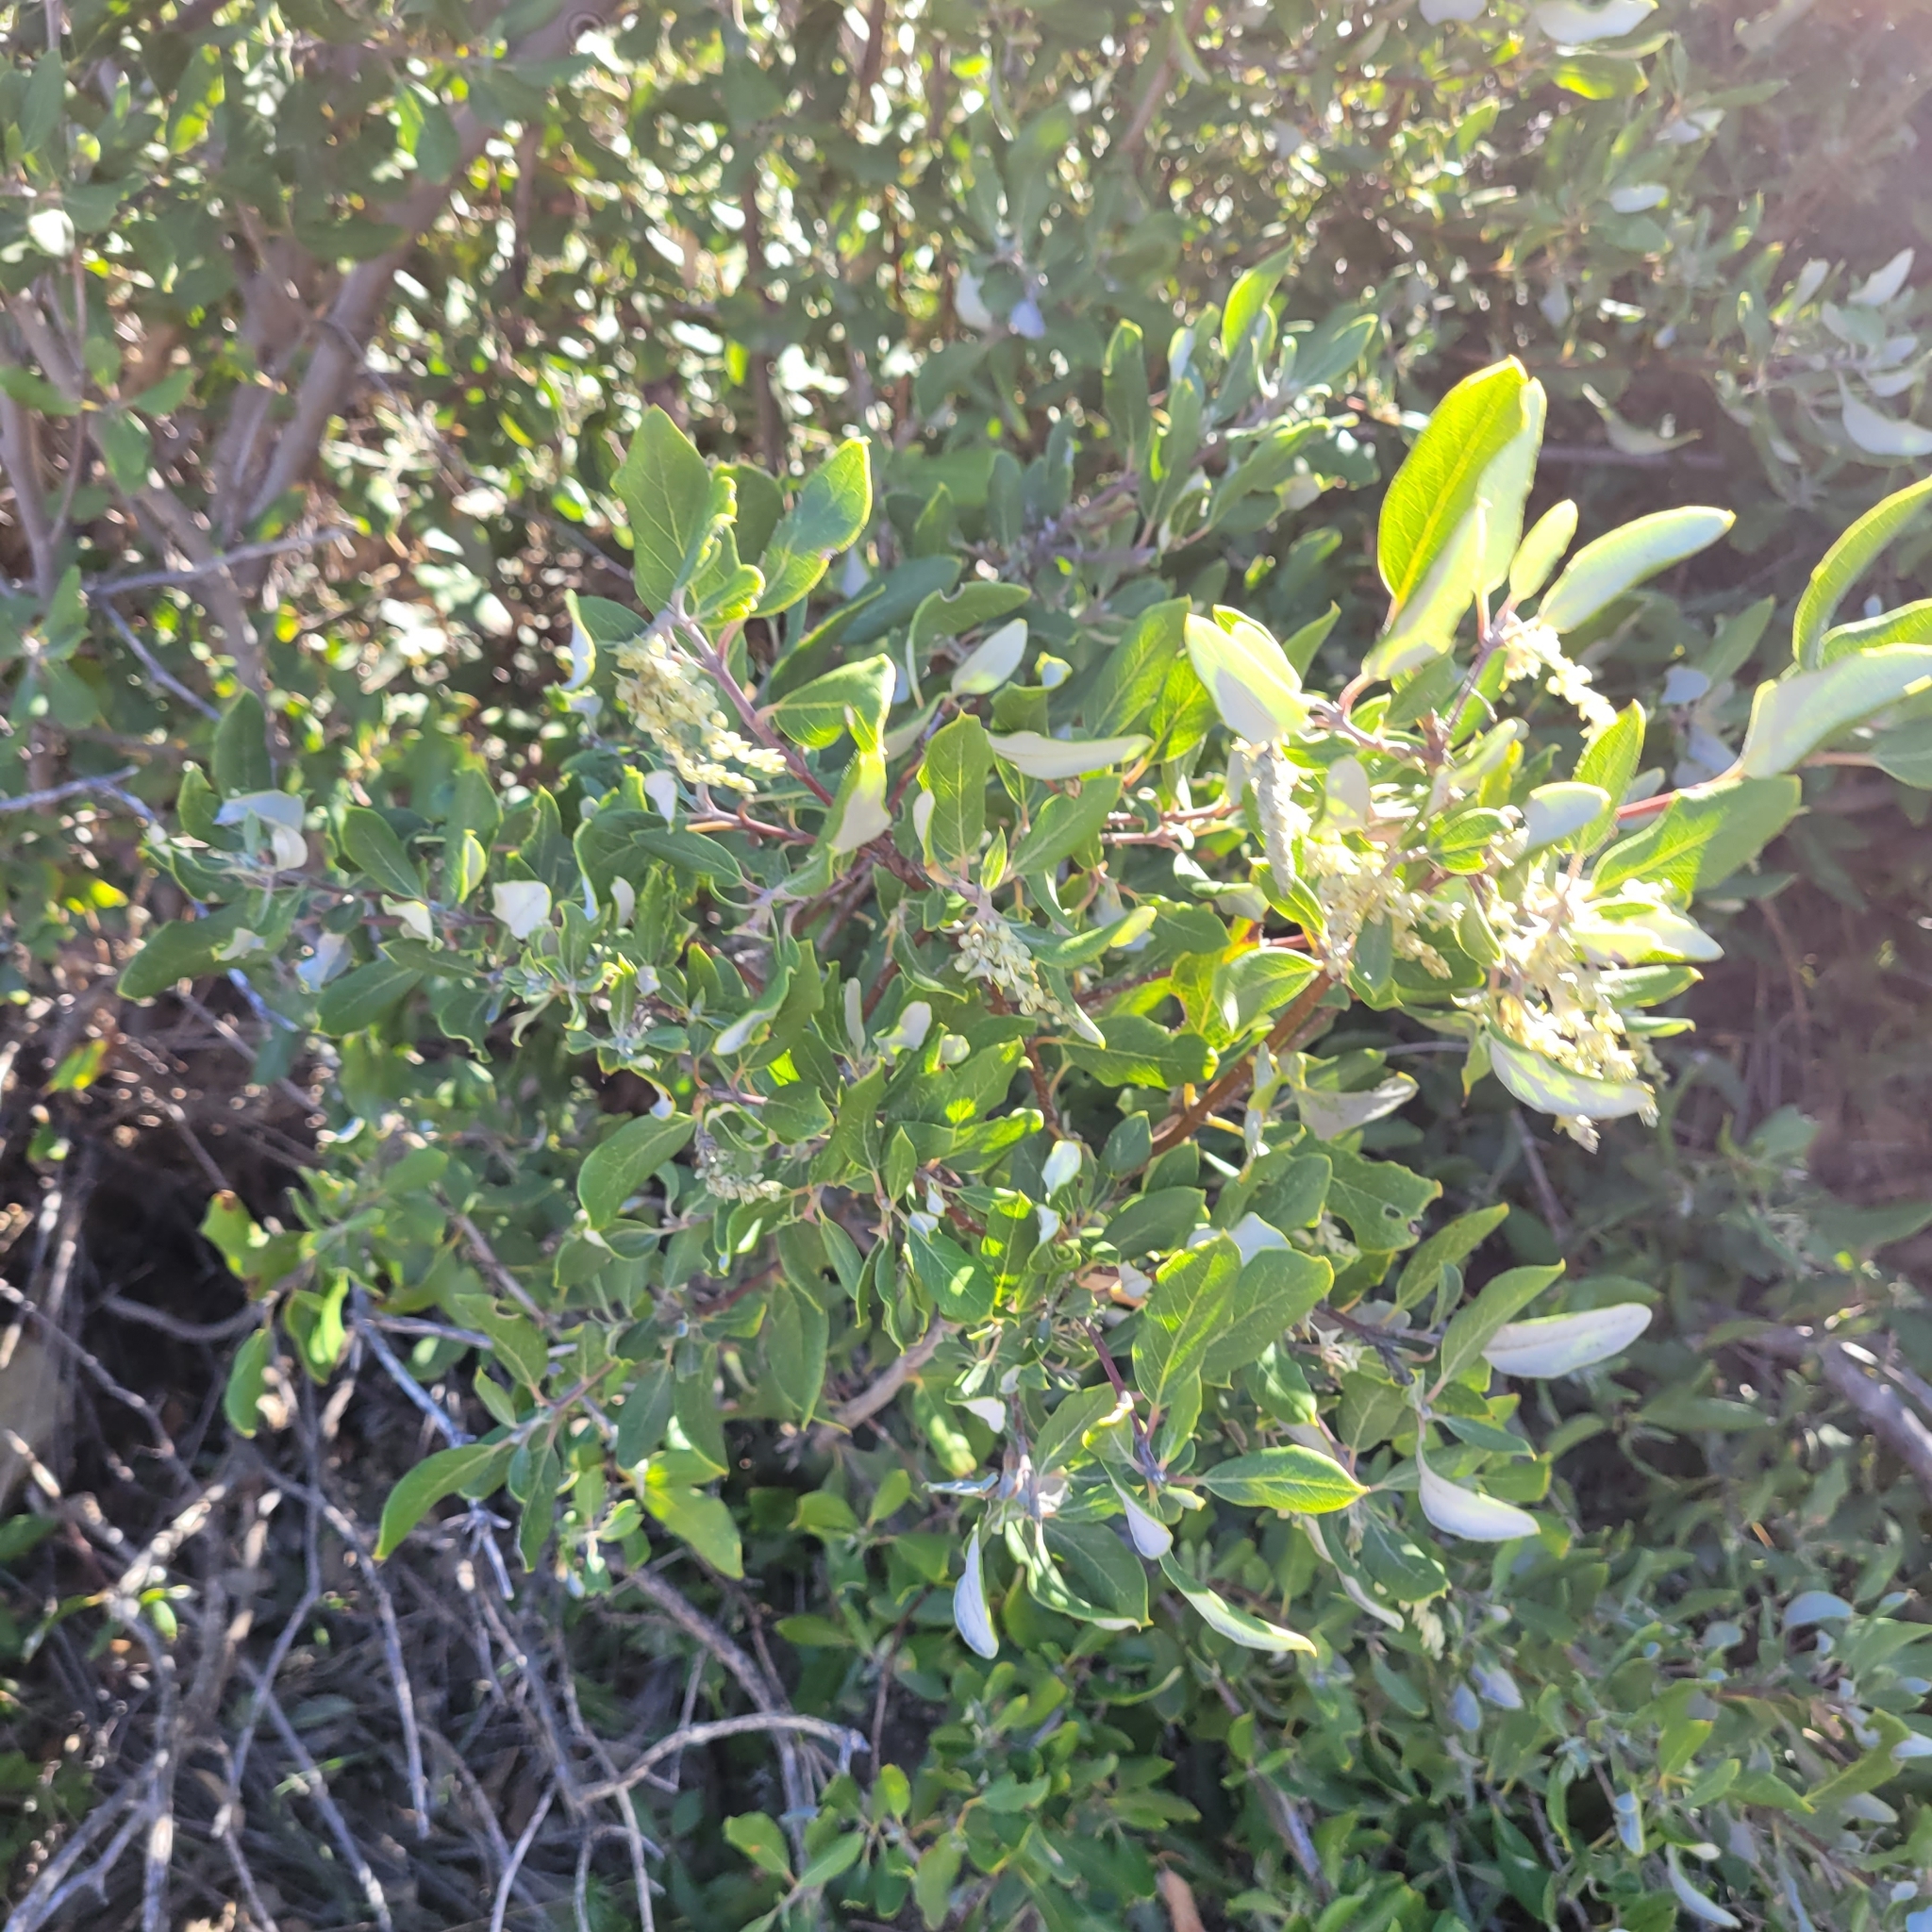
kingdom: Plantae
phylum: Tracheophyta
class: Magnoliopsida
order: Garryales
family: Garryaceae
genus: Garrya
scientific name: Garrya veatchii
